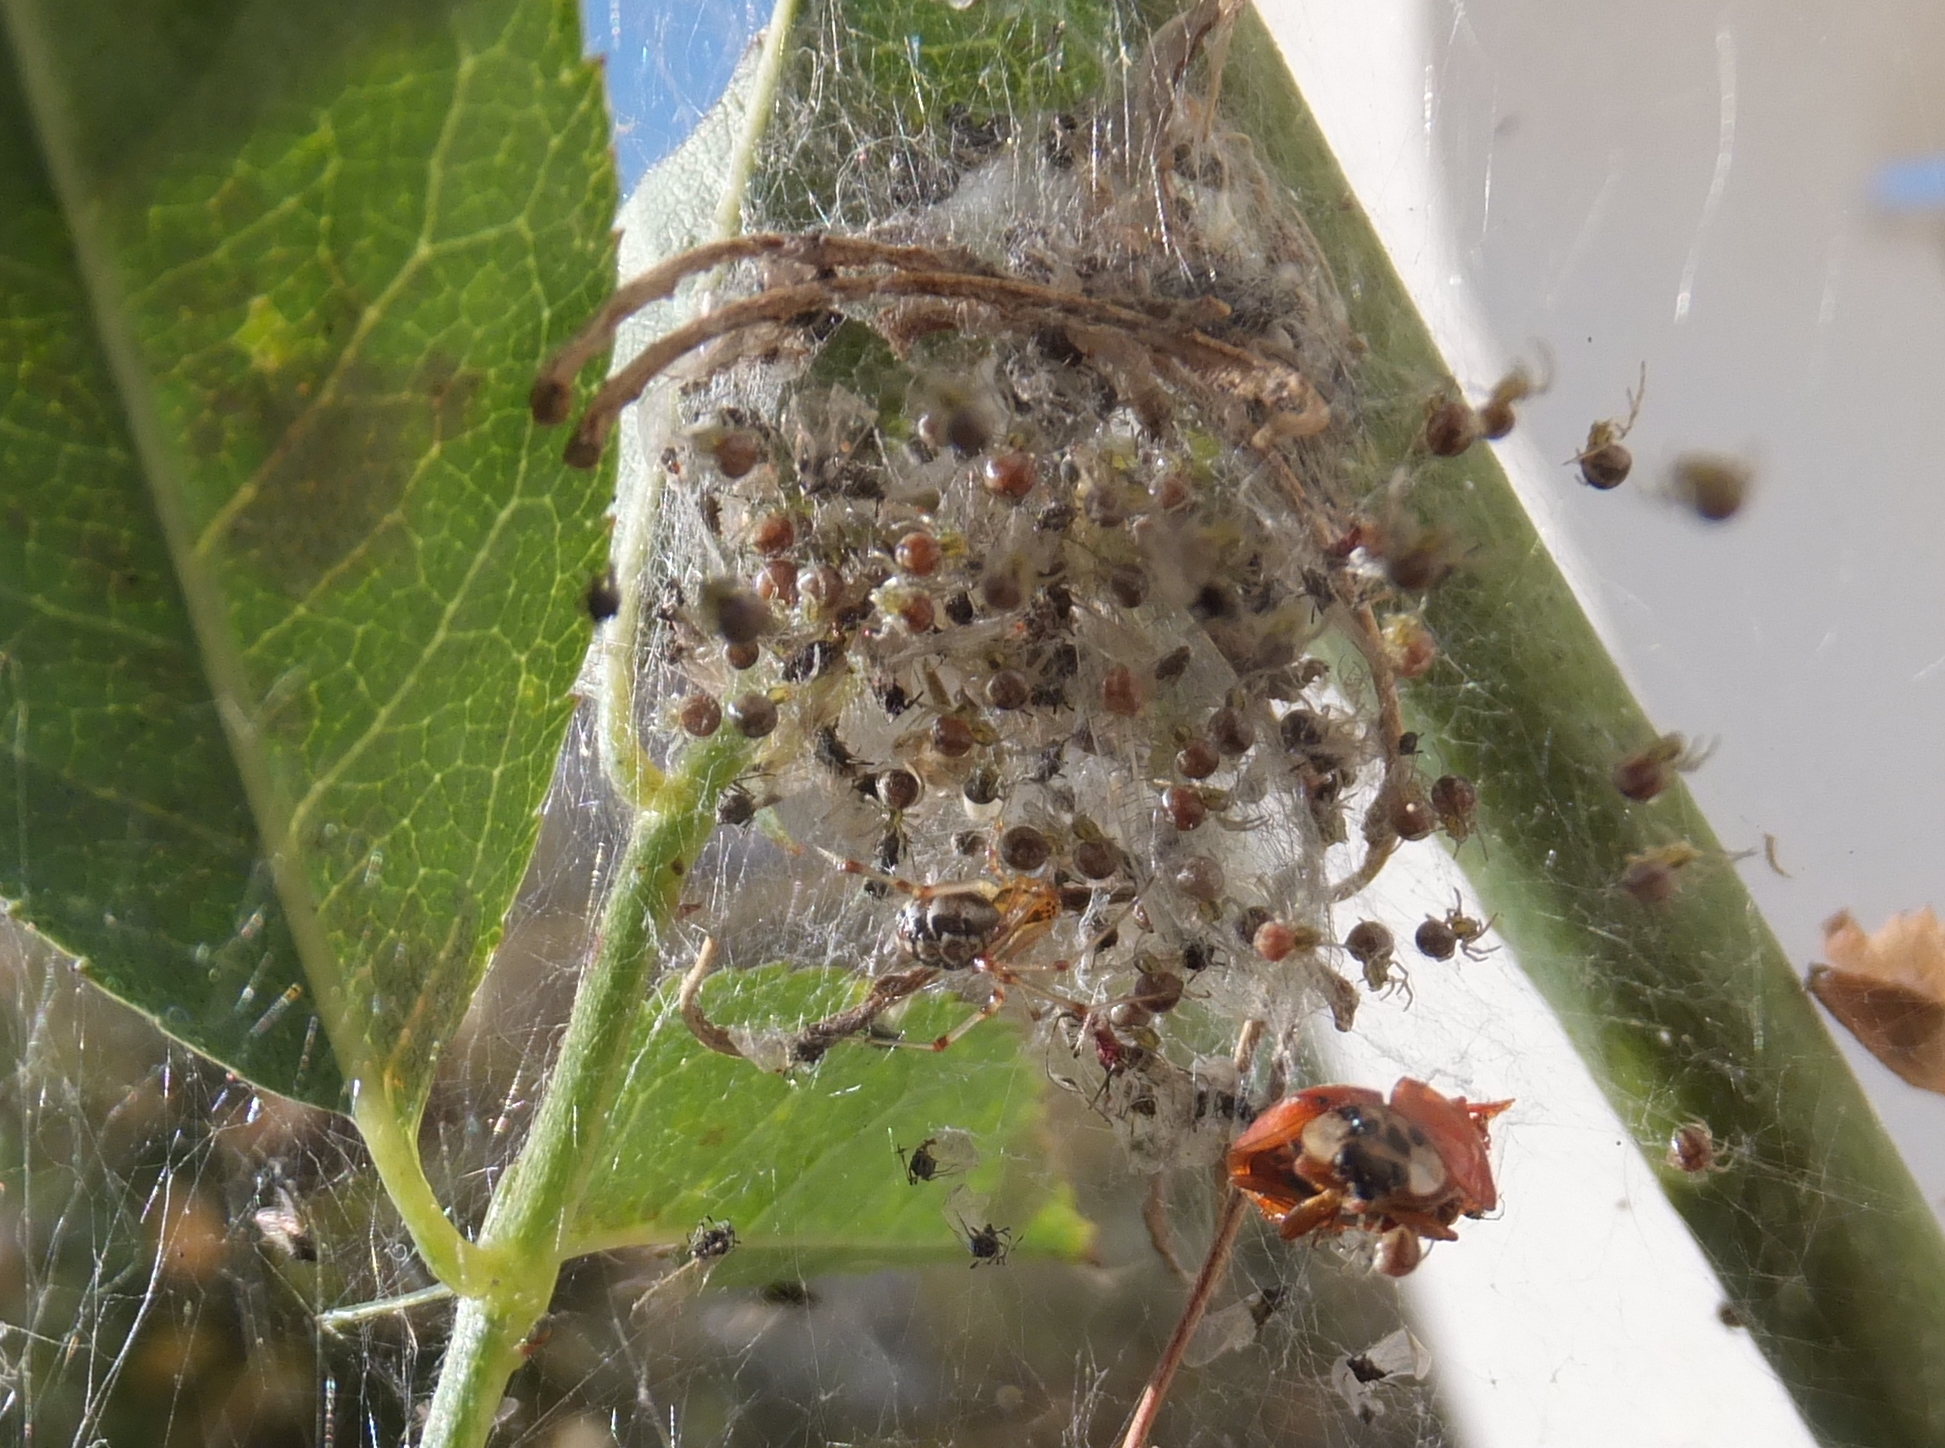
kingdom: Animalia
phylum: Arthropoda
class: Arachnida
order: Araneae
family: Theridiidae
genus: Phylloneta
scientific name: Phylloneta impressa
